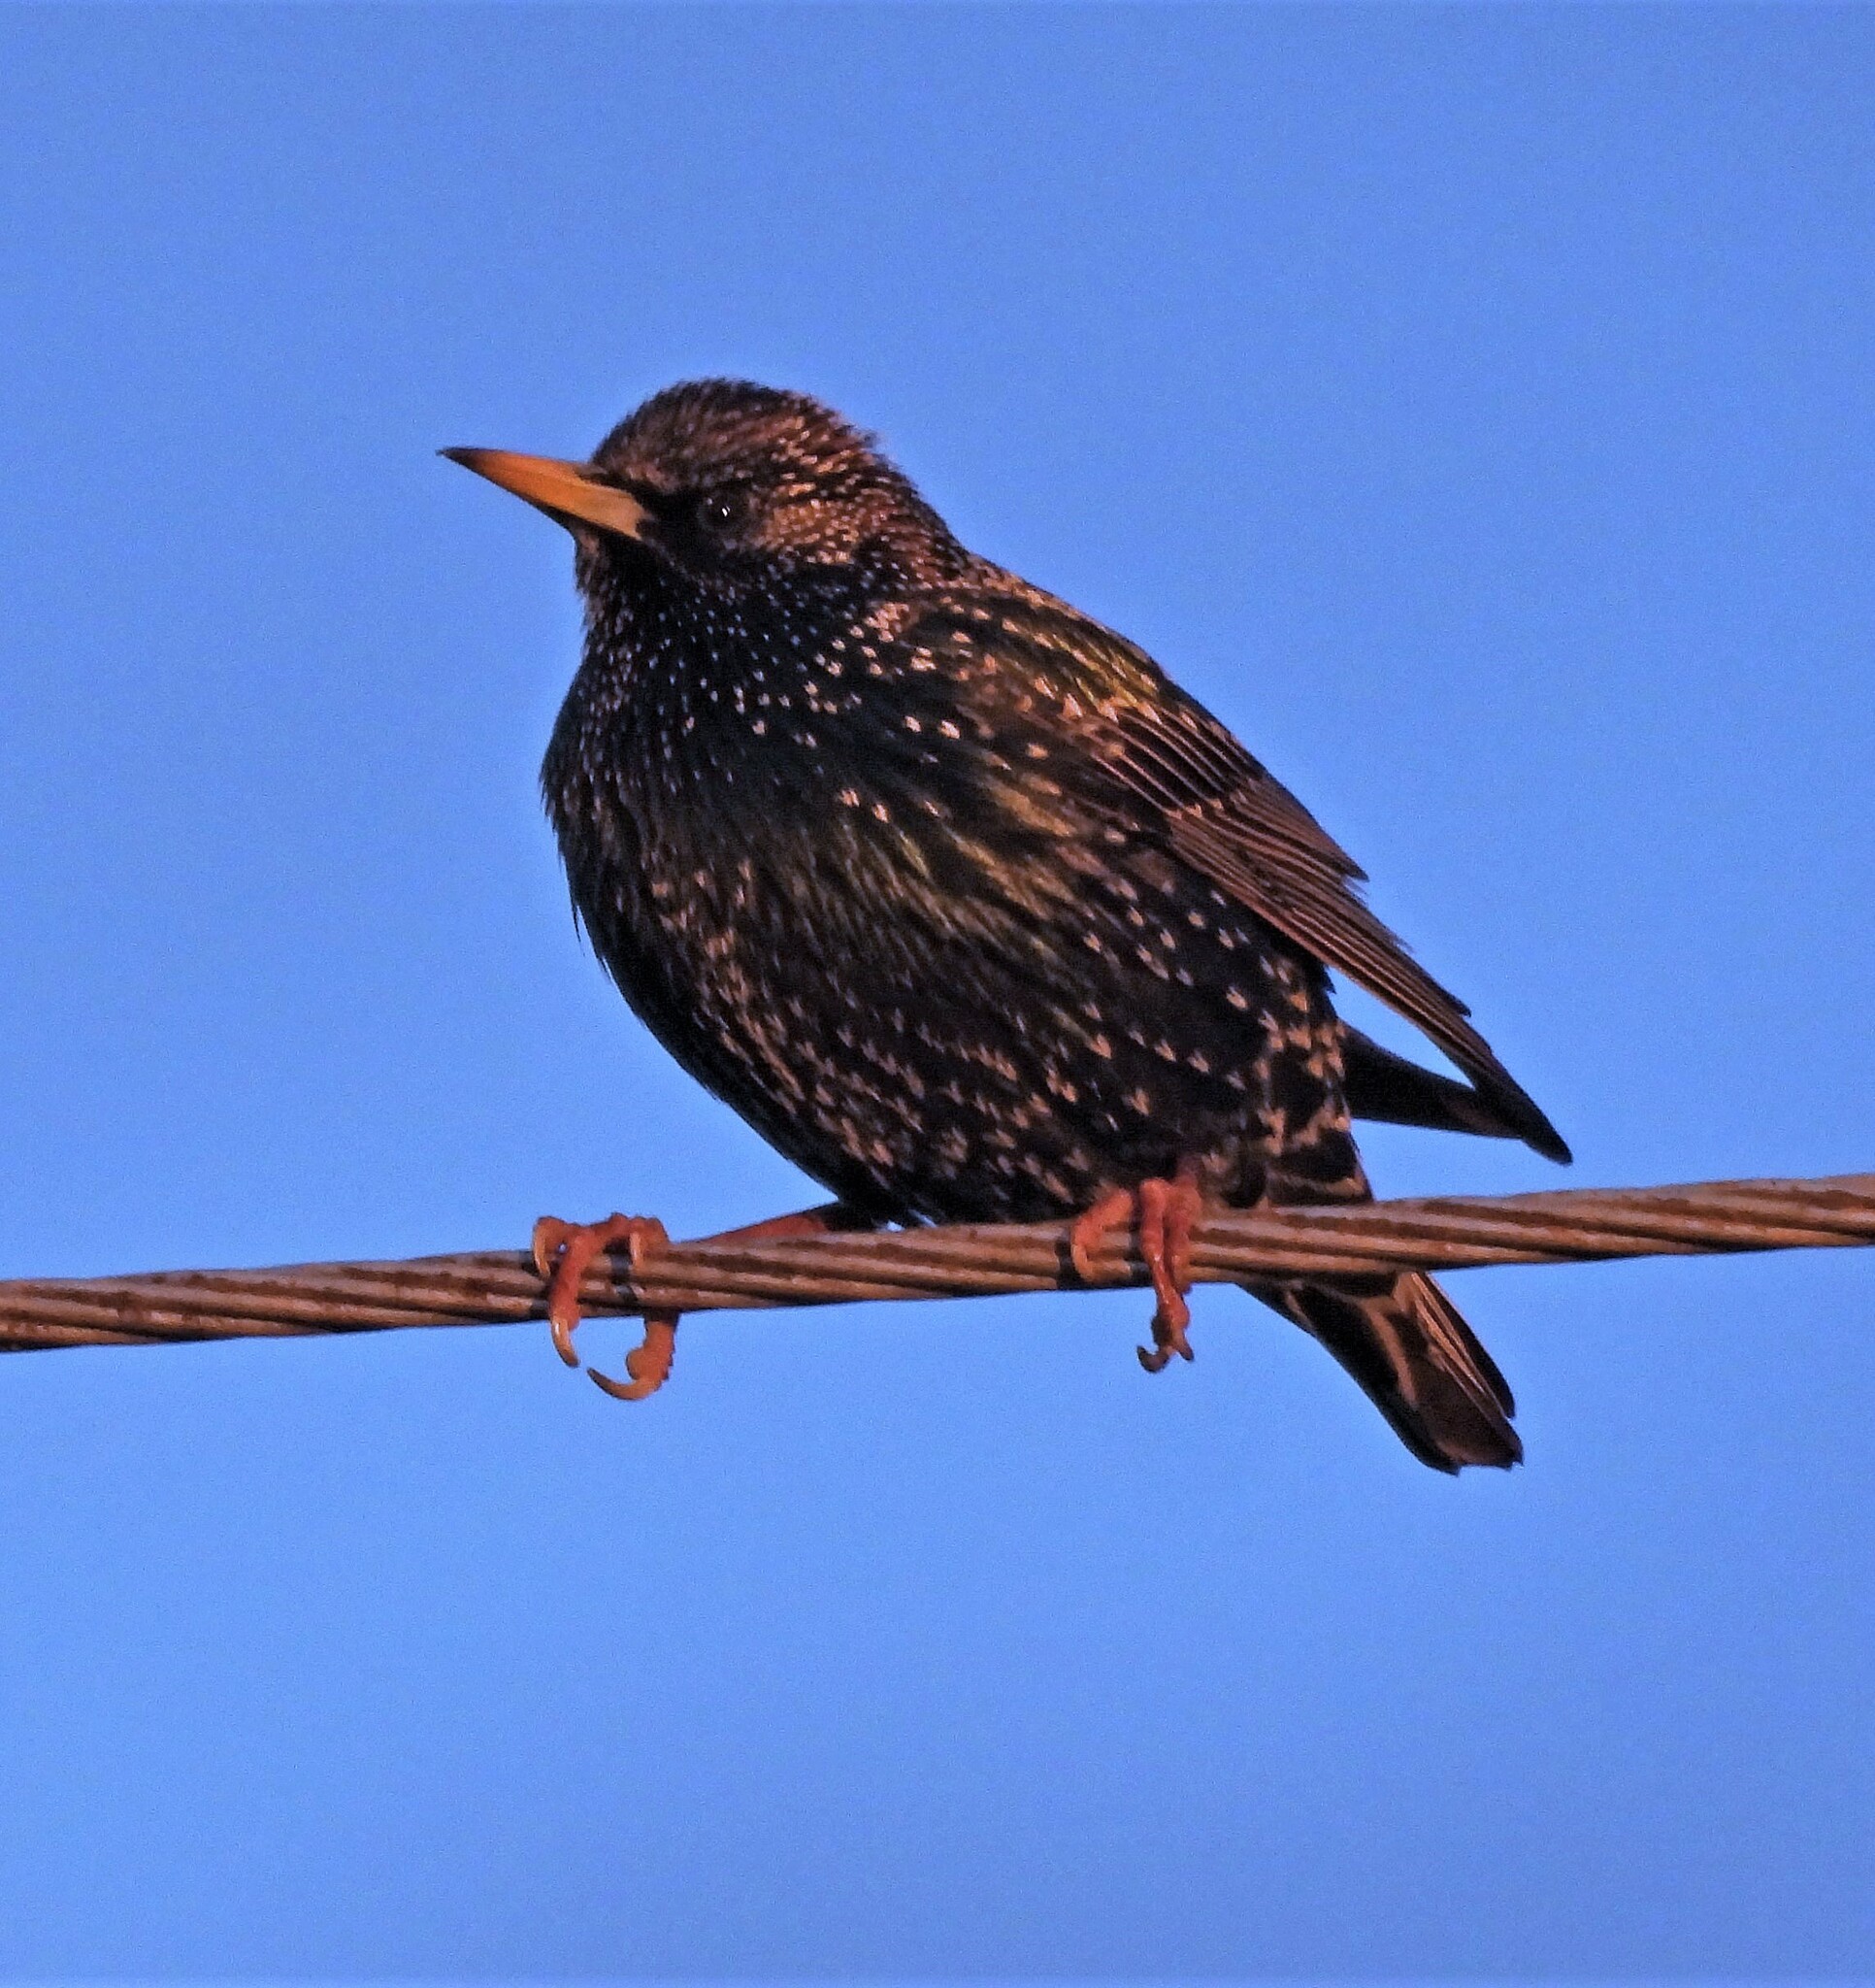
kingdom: Animalia
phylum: Chordata
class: Aves
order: Passeriformes
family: Sturnidae
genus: Sturnus
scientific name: Sturnus vulgaris
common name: Common starling
